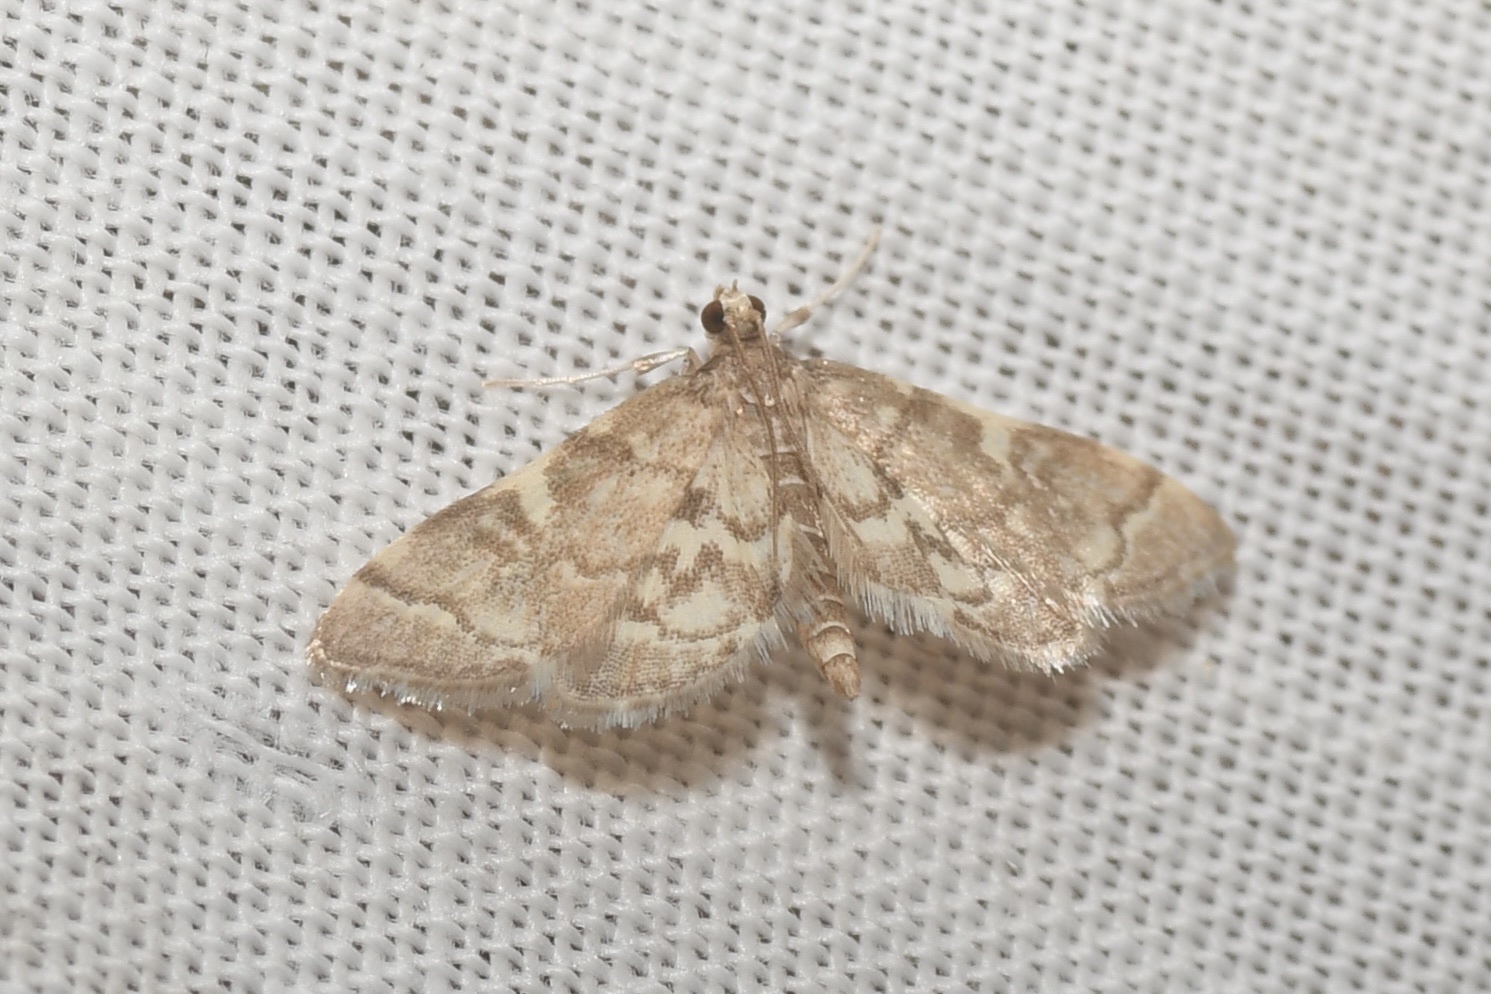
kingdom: Animalia
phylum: Arthropoda
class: Insecta
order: Lepidoptera
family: Crambidae
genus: Anageshna
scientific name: Anageshna primordialis
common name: Yellow-spotted webworm moth
